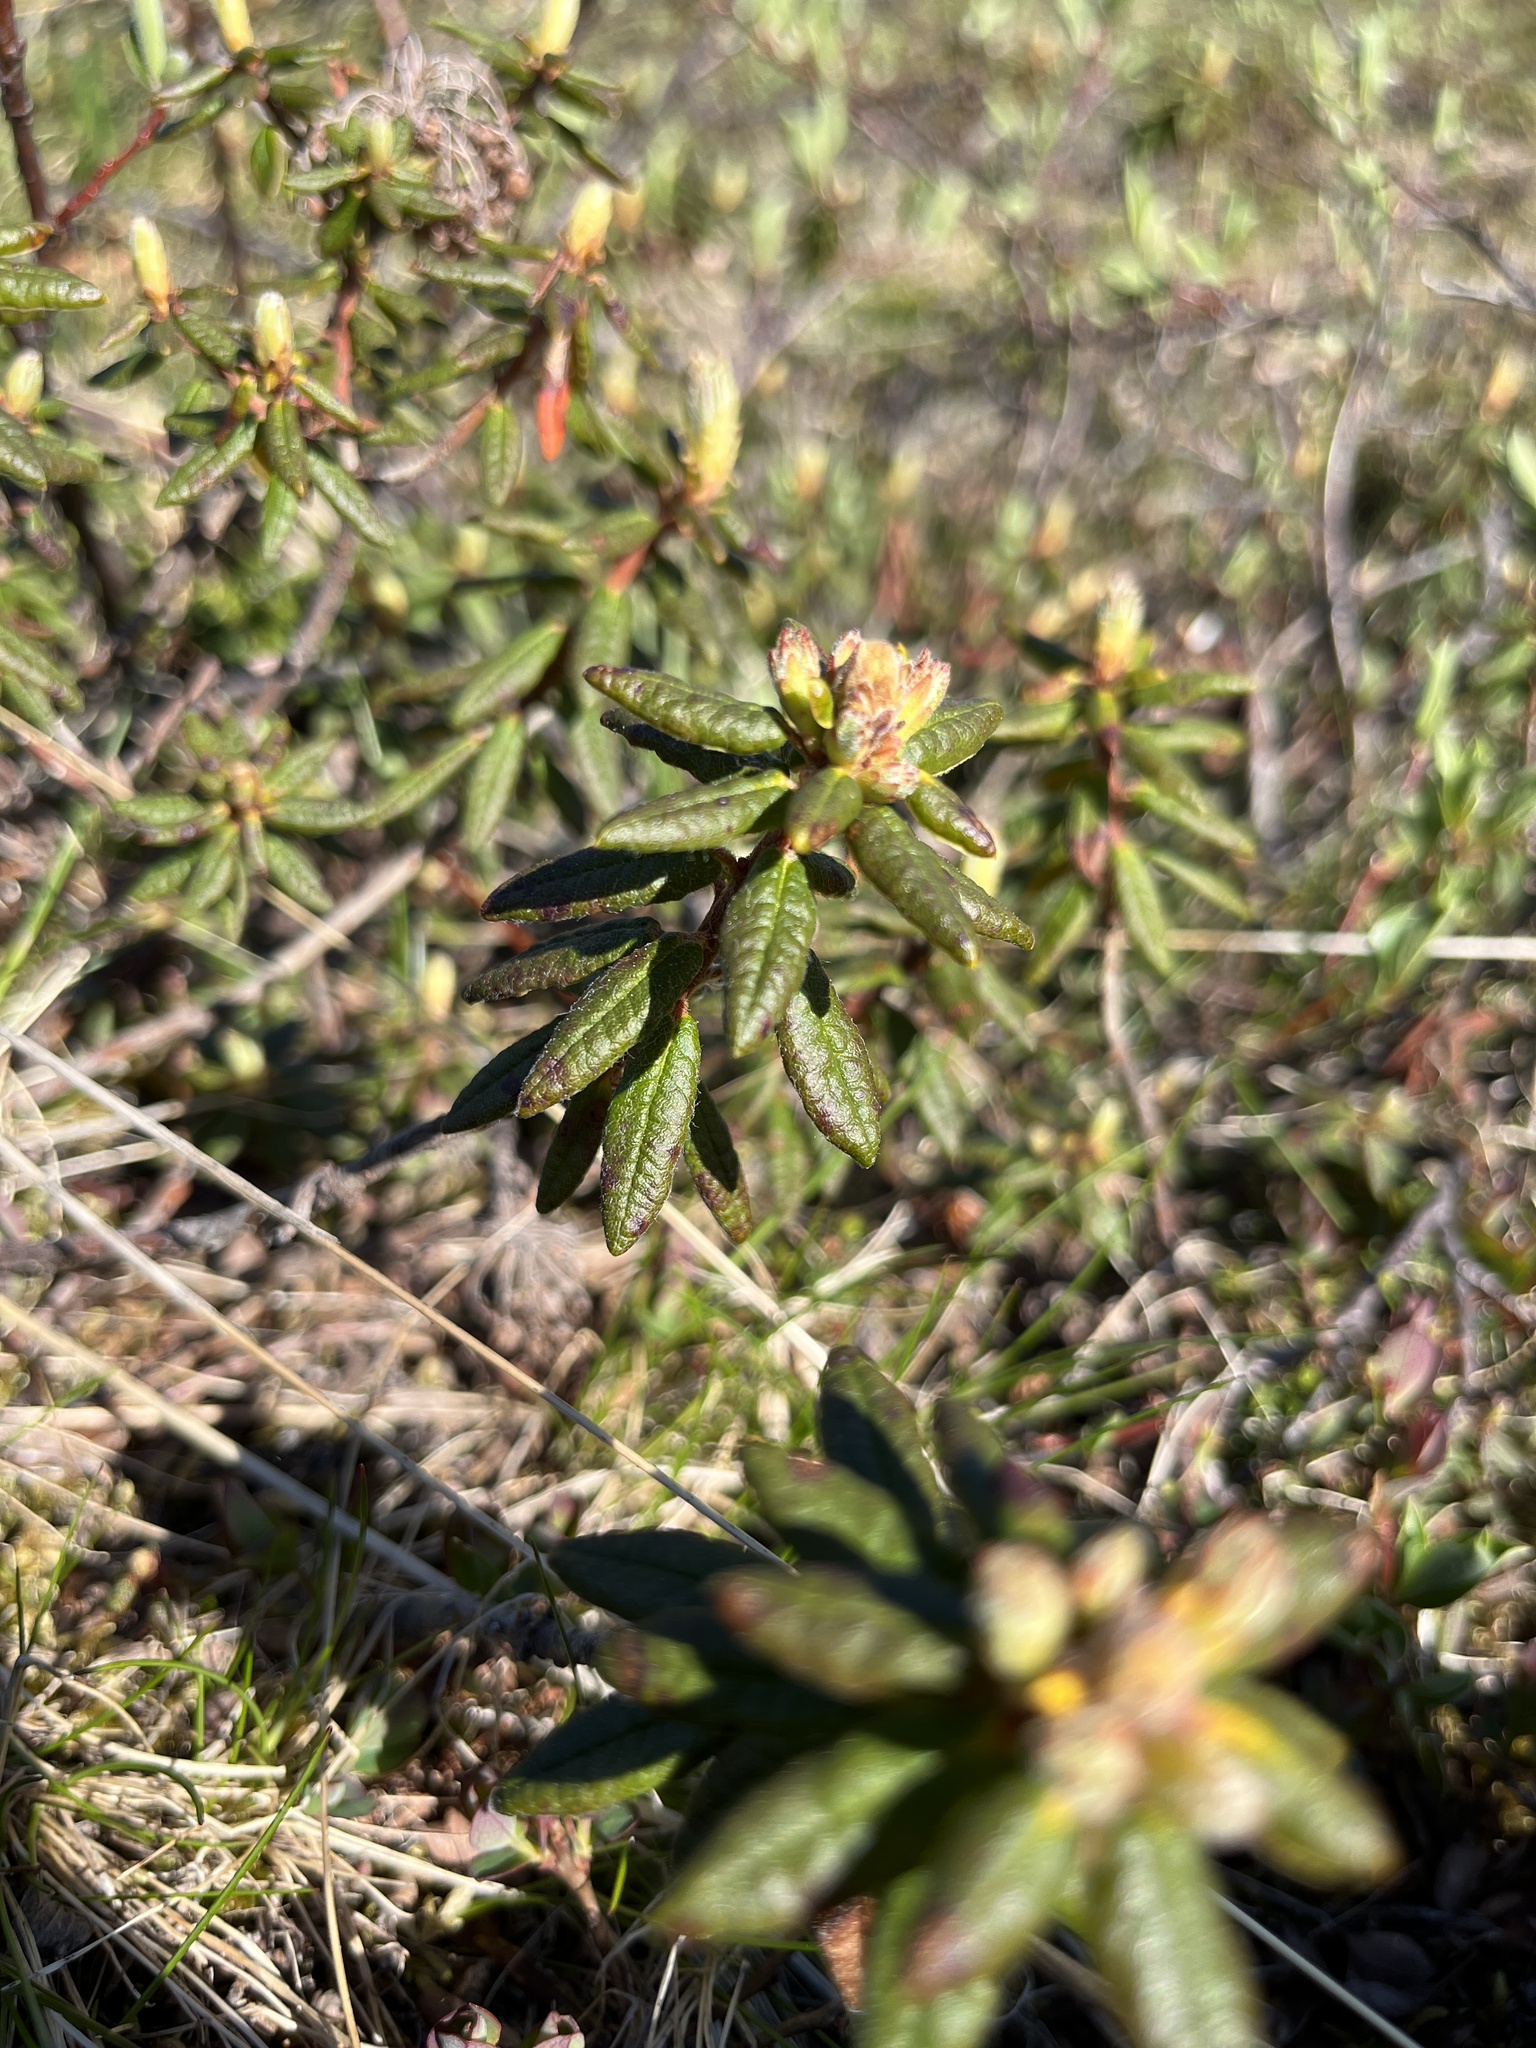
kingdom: Plantae
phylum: Tracheophyta
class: Magnoliopsida
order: Ericales
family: Ericaceae
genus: Rhododendron
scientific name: Rhododendron groenlandicum
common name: Bog labrador tea
